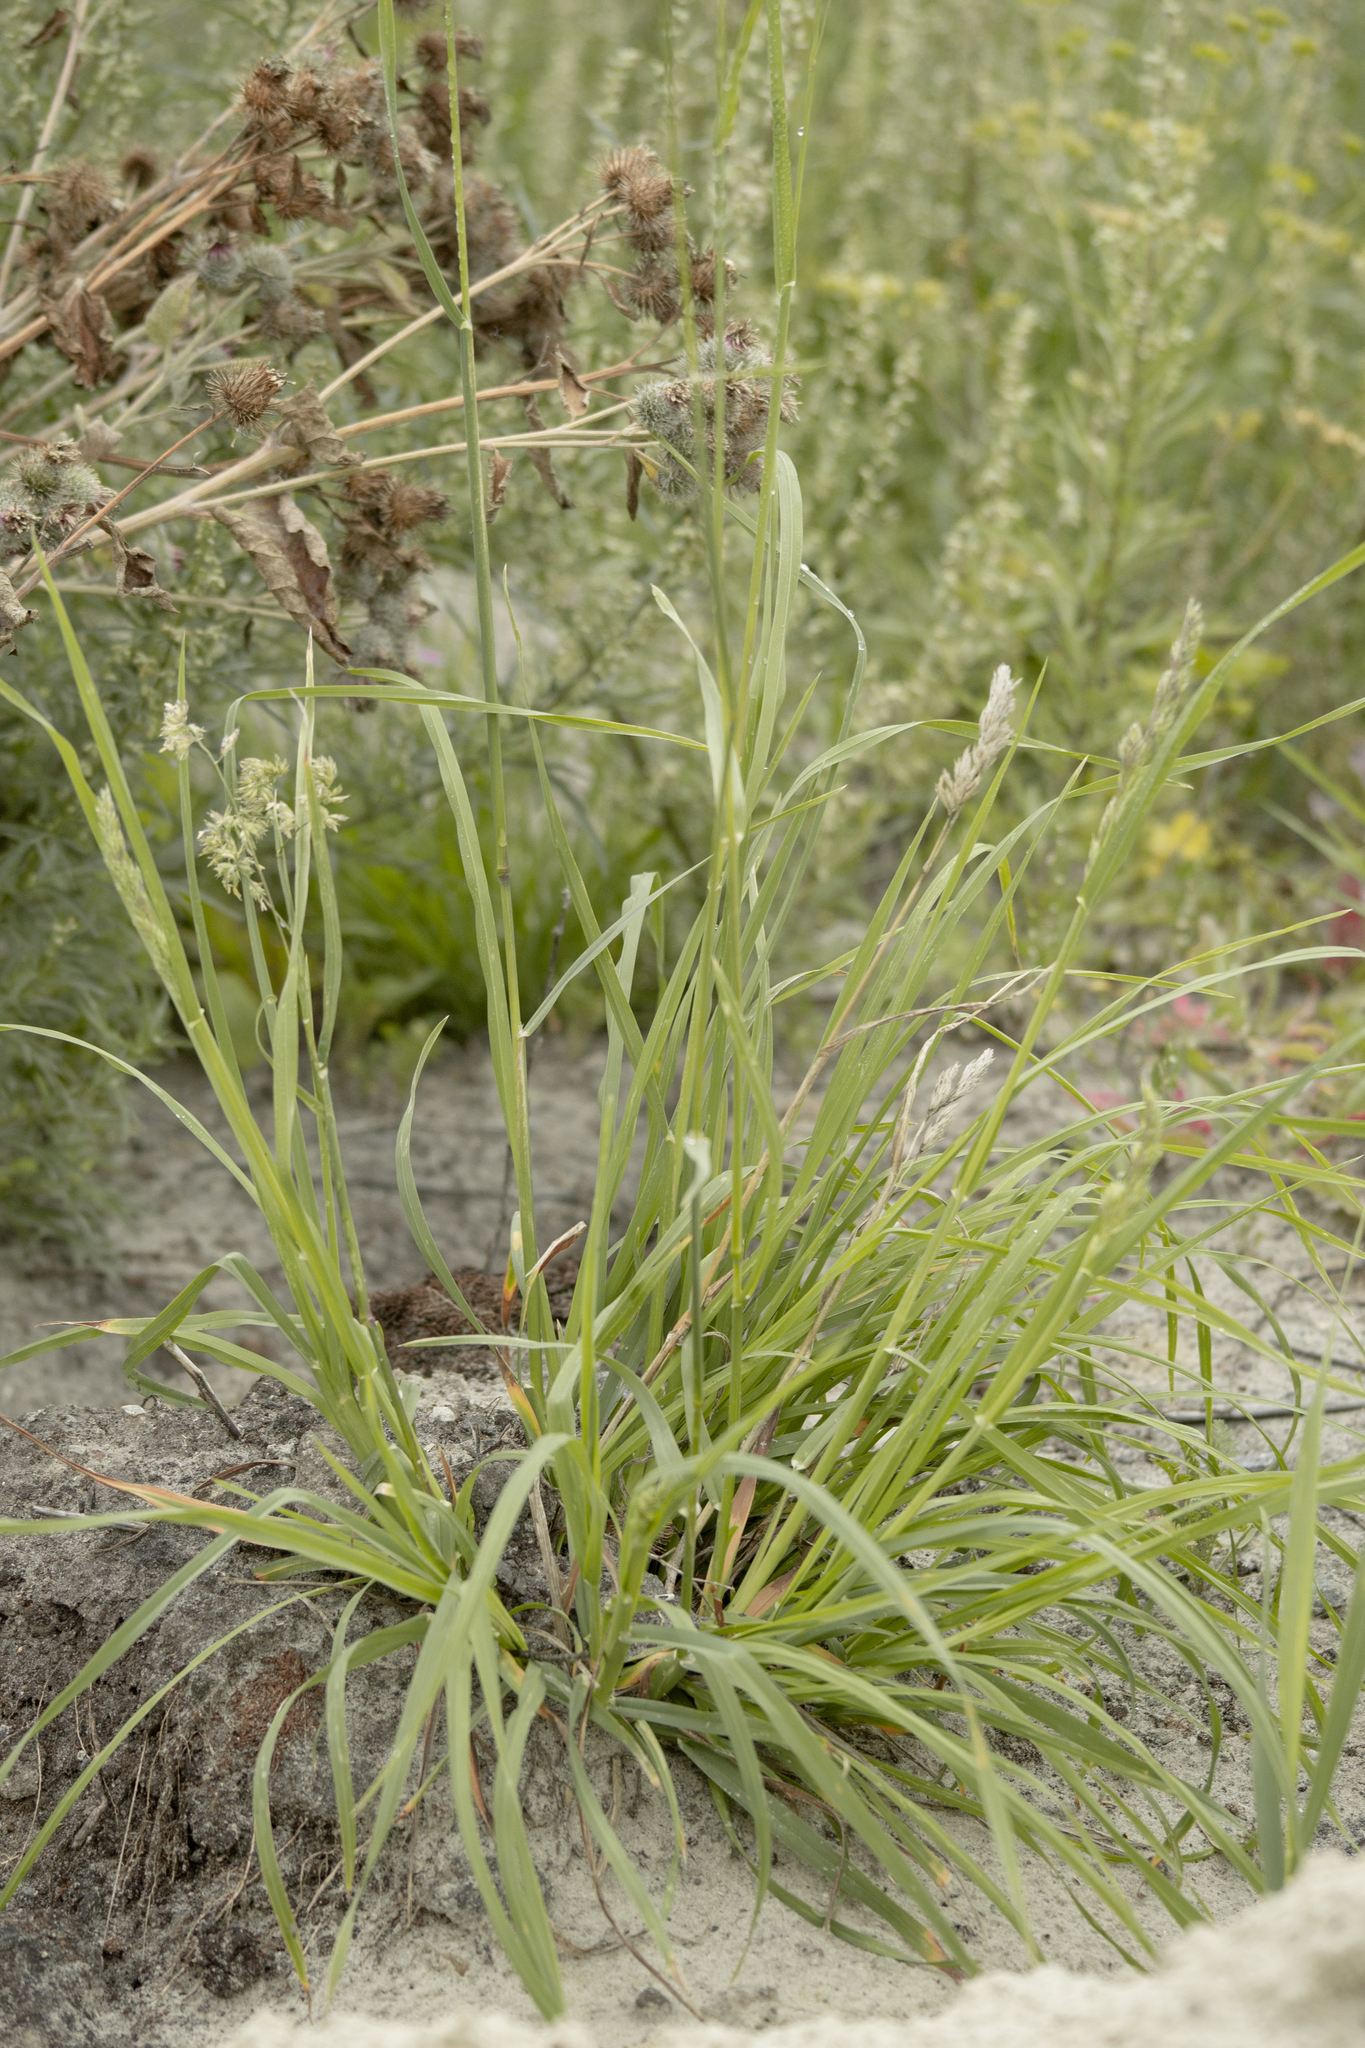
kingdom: Plantae
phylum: Tracheophyta
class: Liliopsida
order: Poales
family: Poaceae
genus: Dactylis
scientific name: Dactylis glomerata
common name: Orchardgrass
